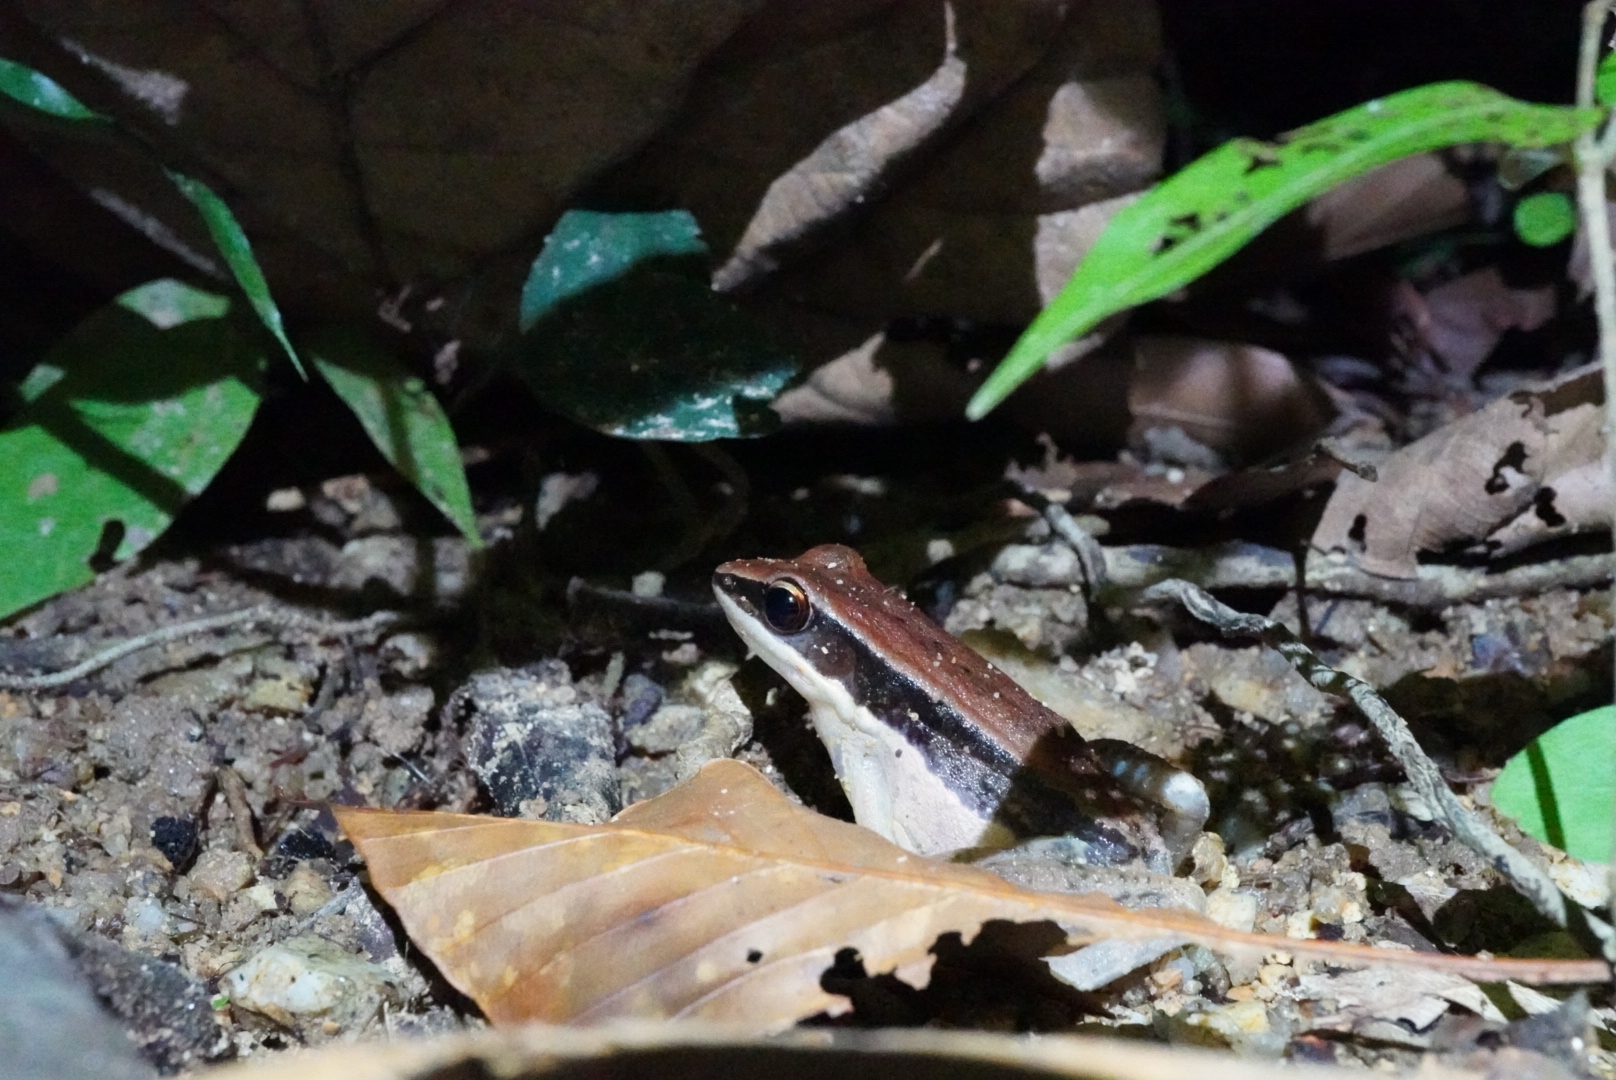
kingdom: Animalia
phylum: Chordata
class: Amphibia
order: Anura
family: Ranidae
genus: Sylvirana
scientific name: Sylvirana malayana
